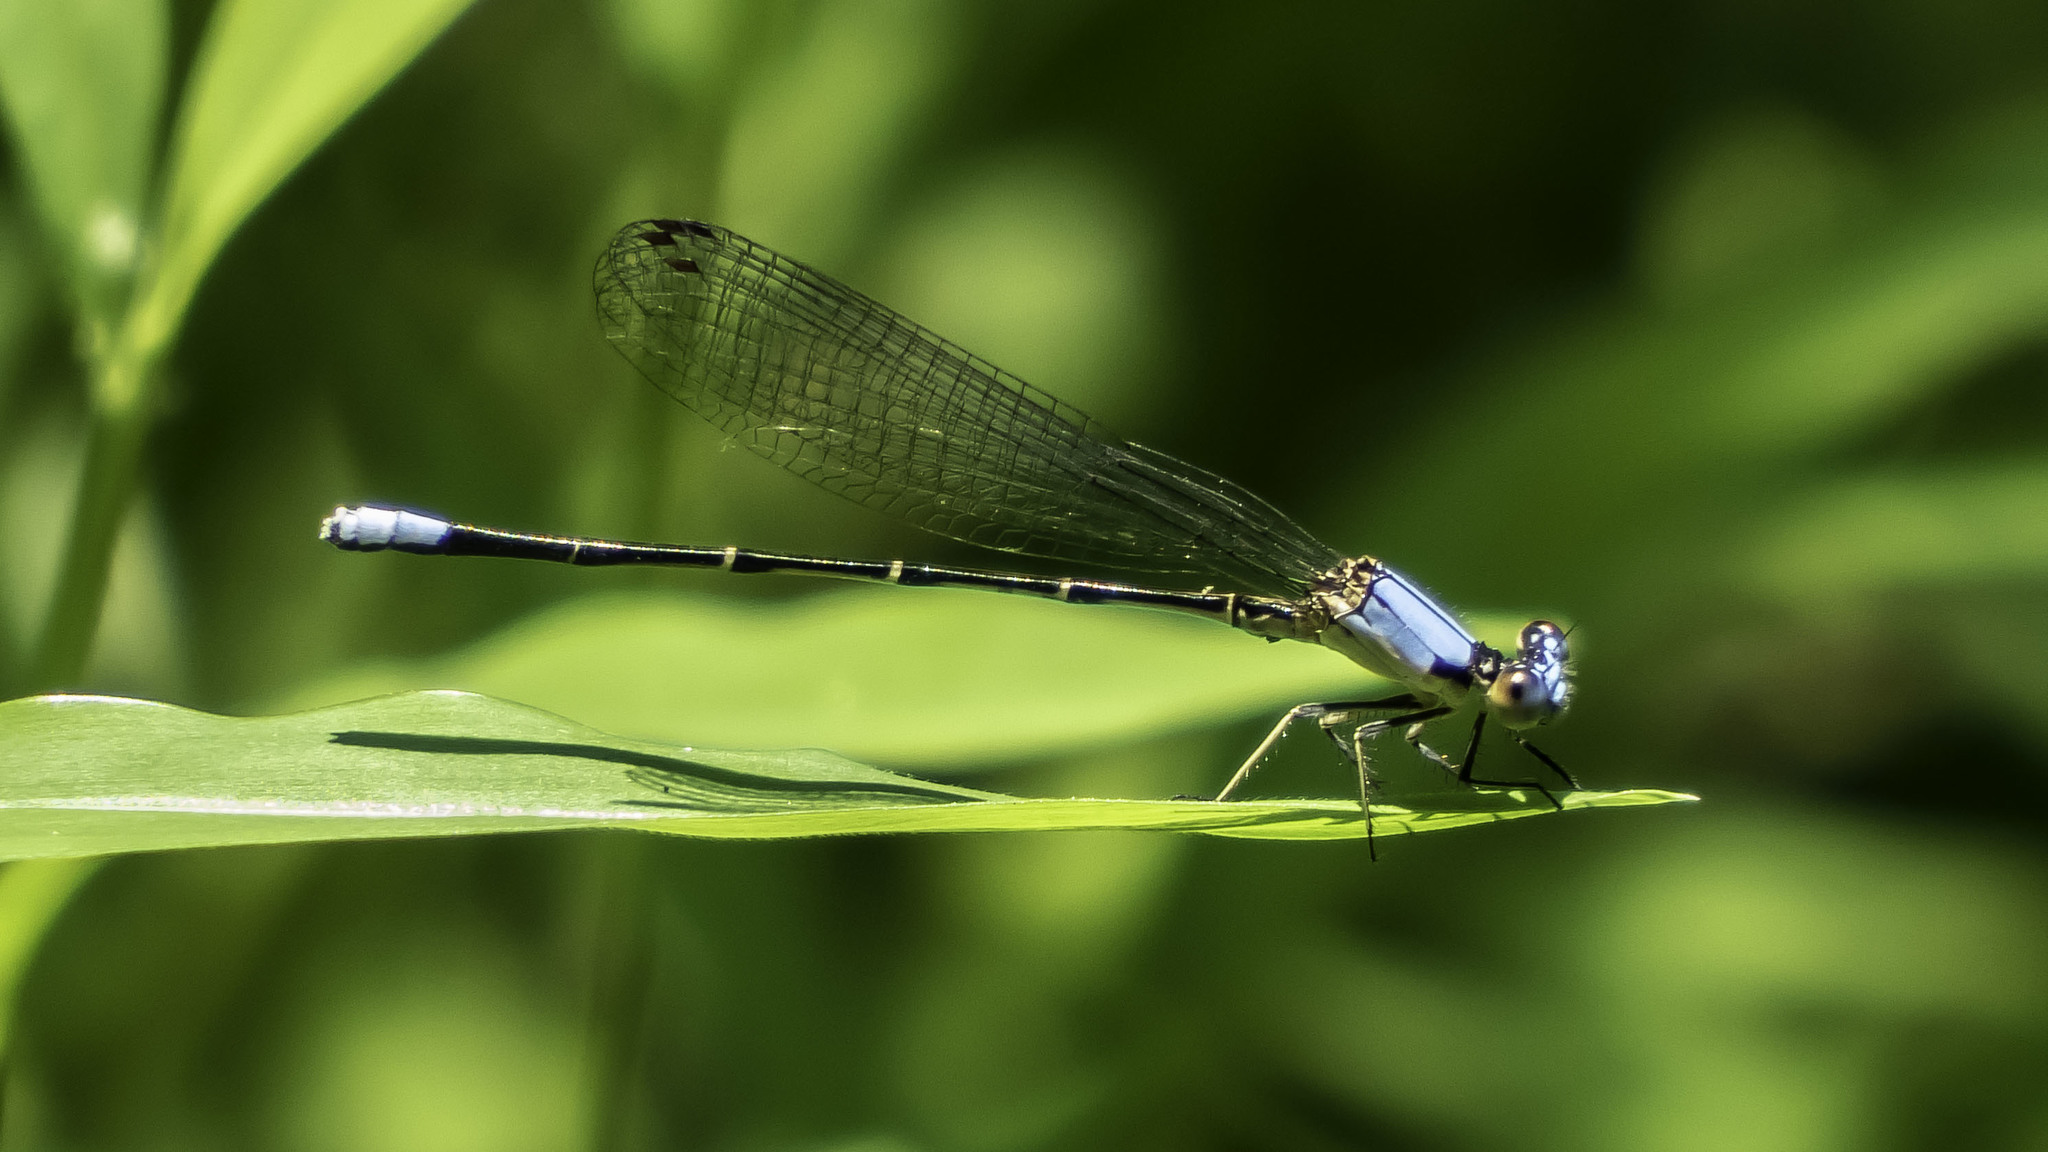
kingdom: Animalia
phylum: Arthropoda
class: Insecta
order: Odonata
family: Coenagrionidae
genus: Argia
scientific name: Argia apicalis
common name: Blue-fronted dancer
